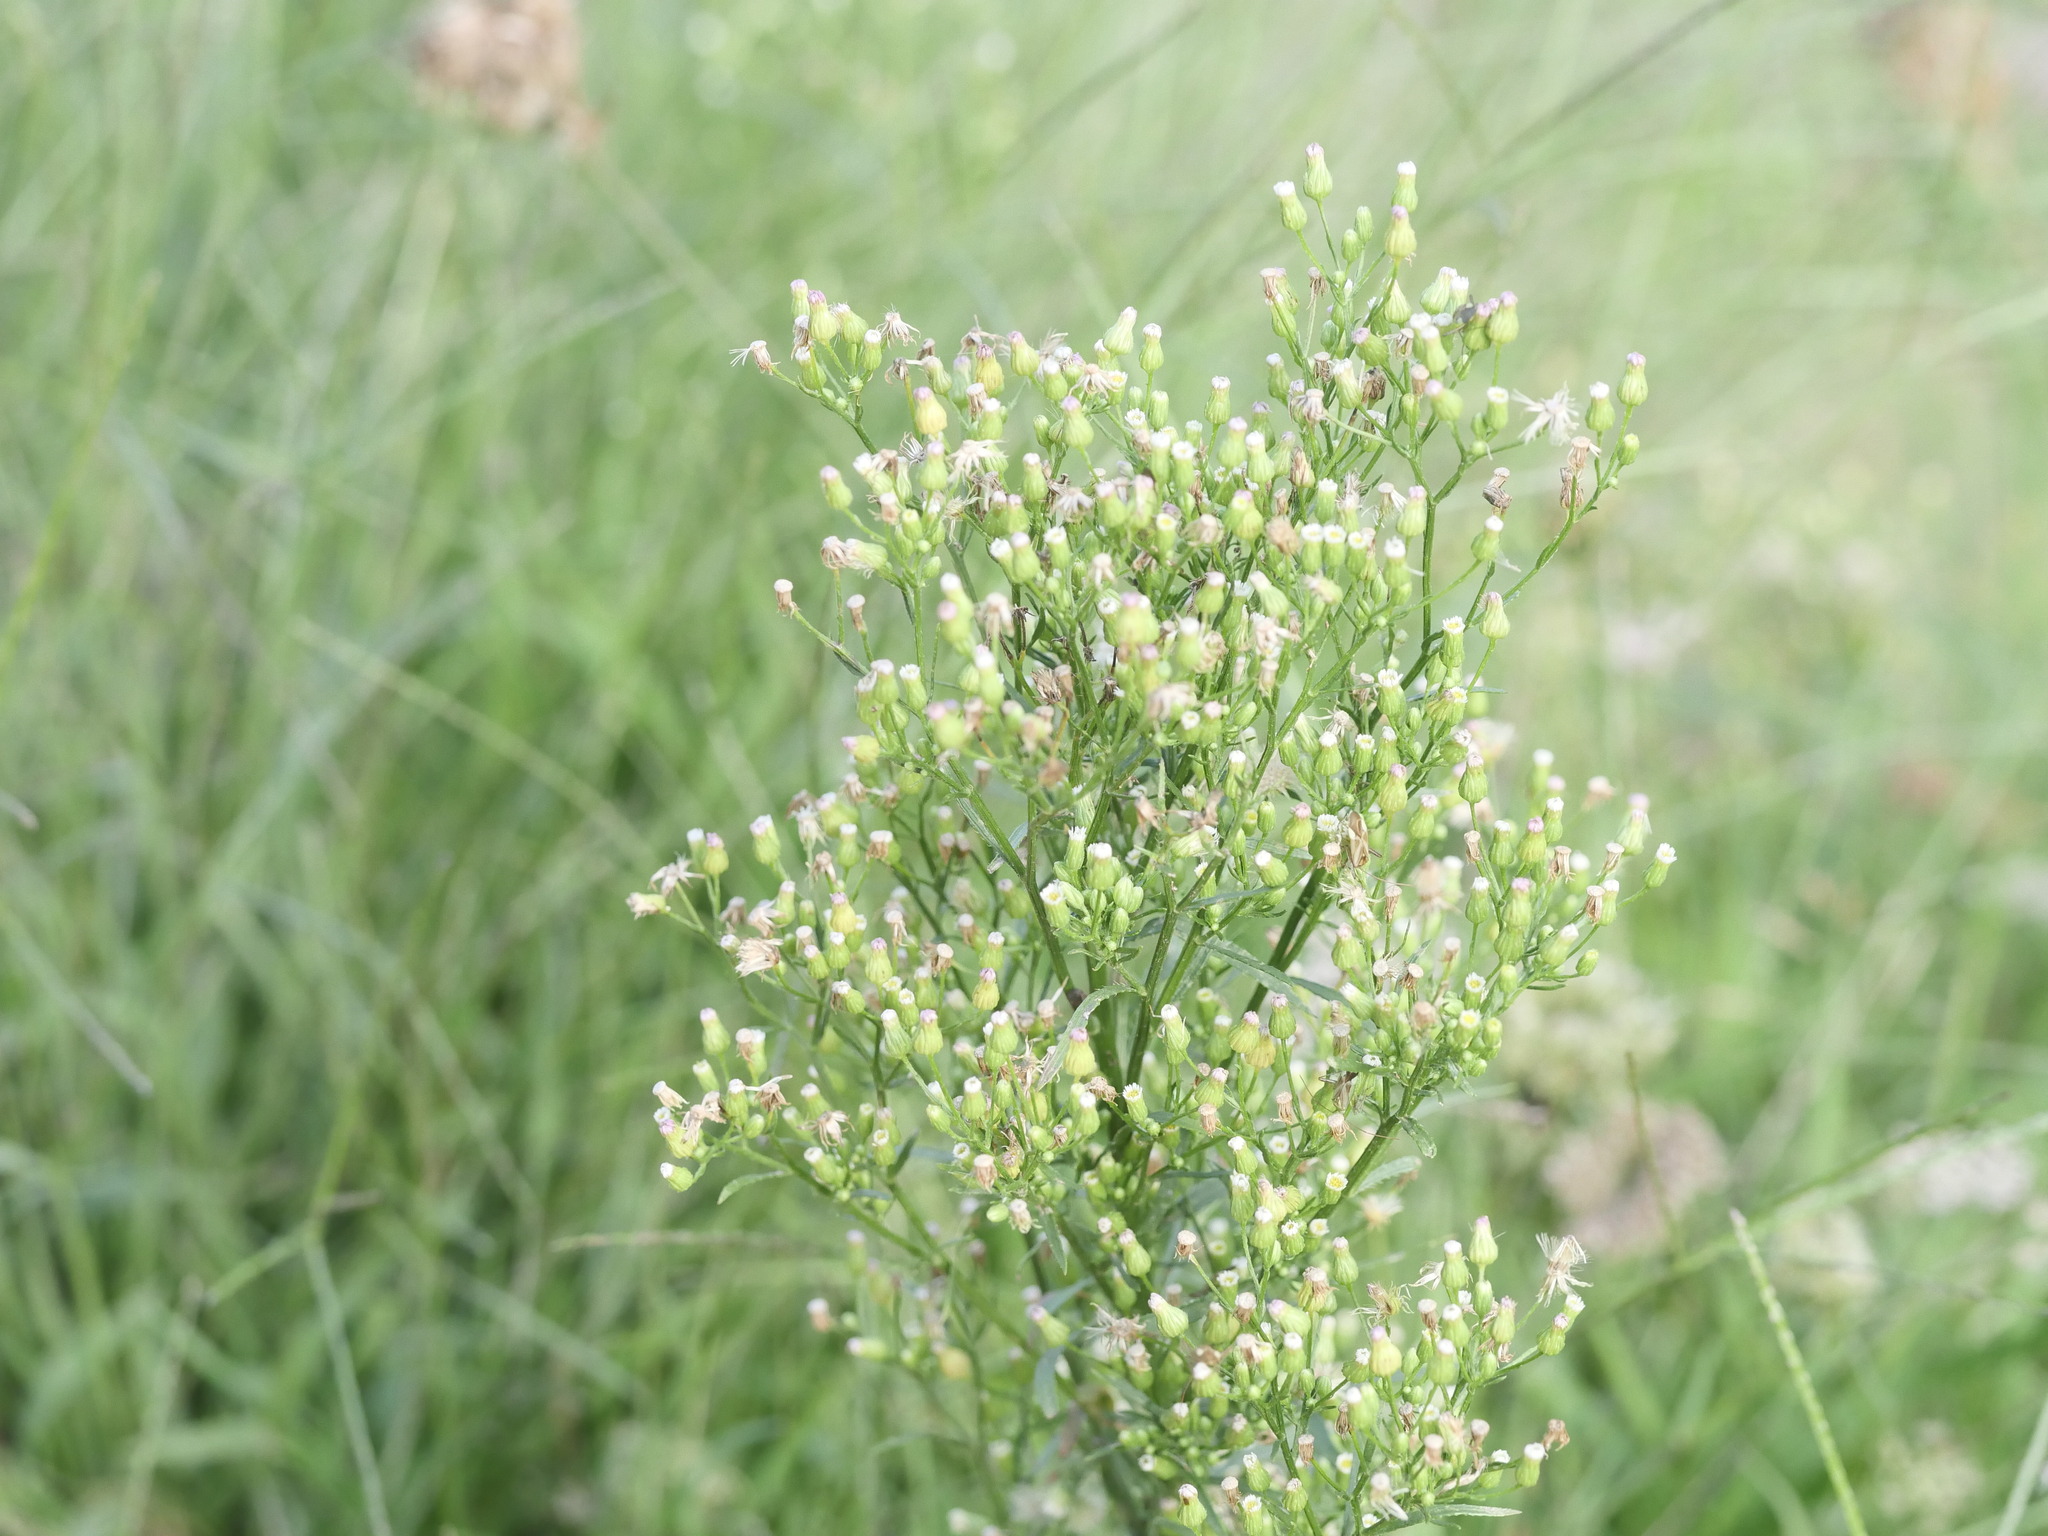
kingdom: Plantae
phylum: Tracheophyta
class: Magnoliopsida
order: Asterales
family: Asteraceae
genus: Erigeron
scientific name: Erigeron canadensis
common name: Canadian fleabane
